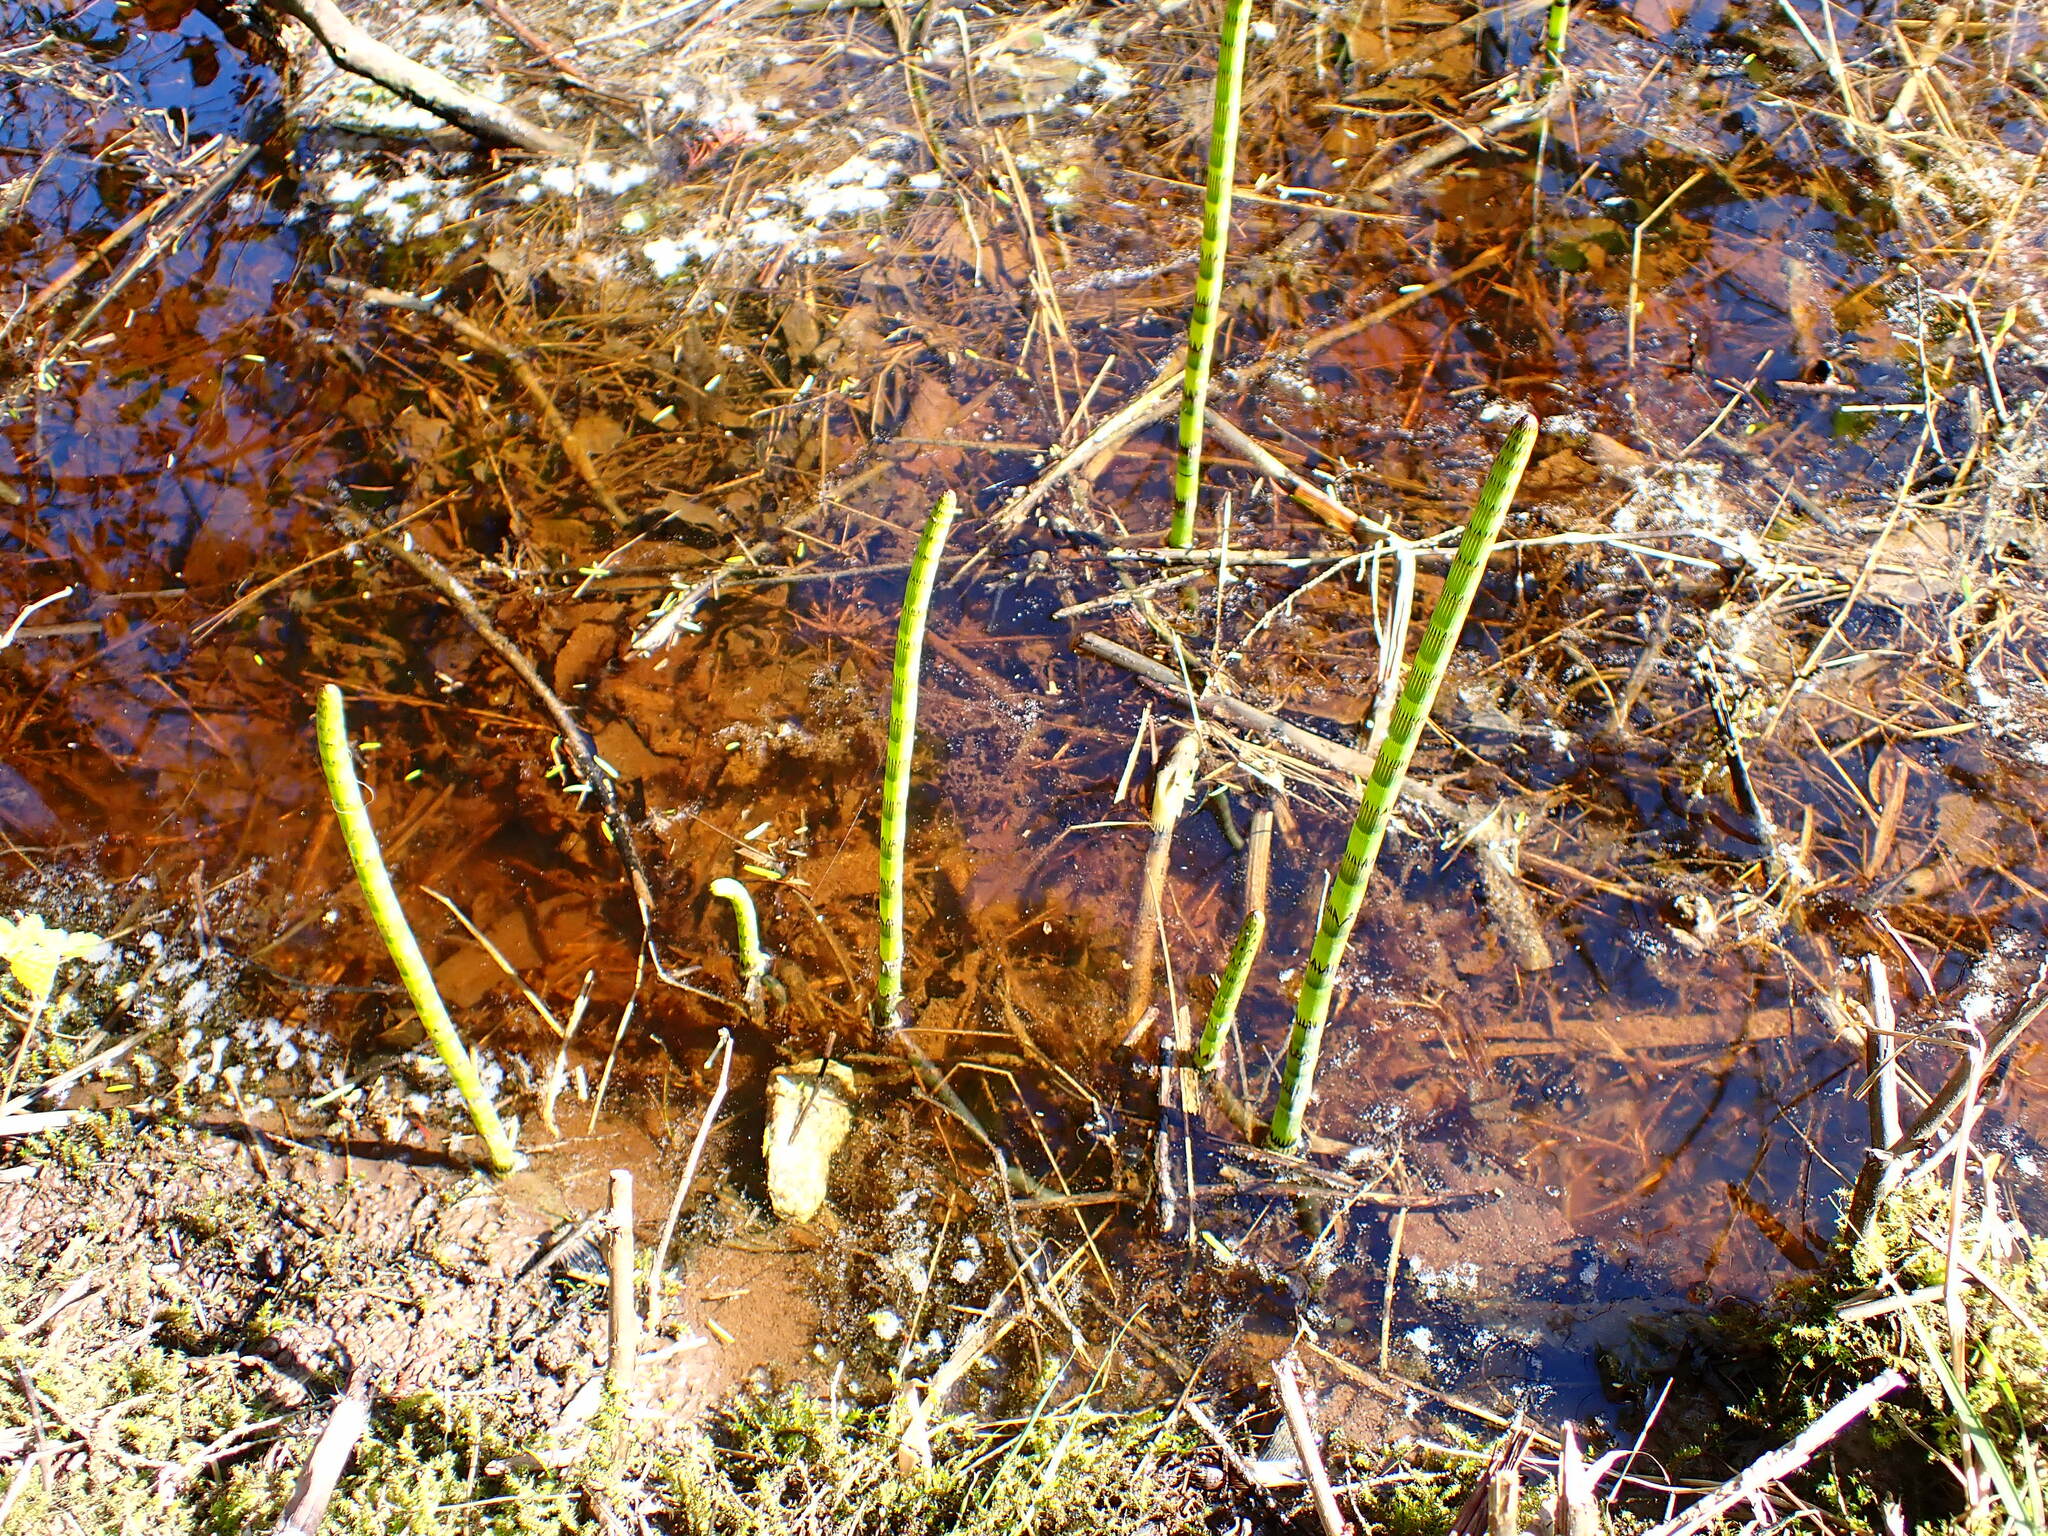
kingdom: Plantae
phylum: Tracheophyta
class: Polypodiopsida
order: Equisetales
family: Equisetaceae
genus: Equisetum
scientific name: Equisetum fluviatile
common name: Water horsetail
